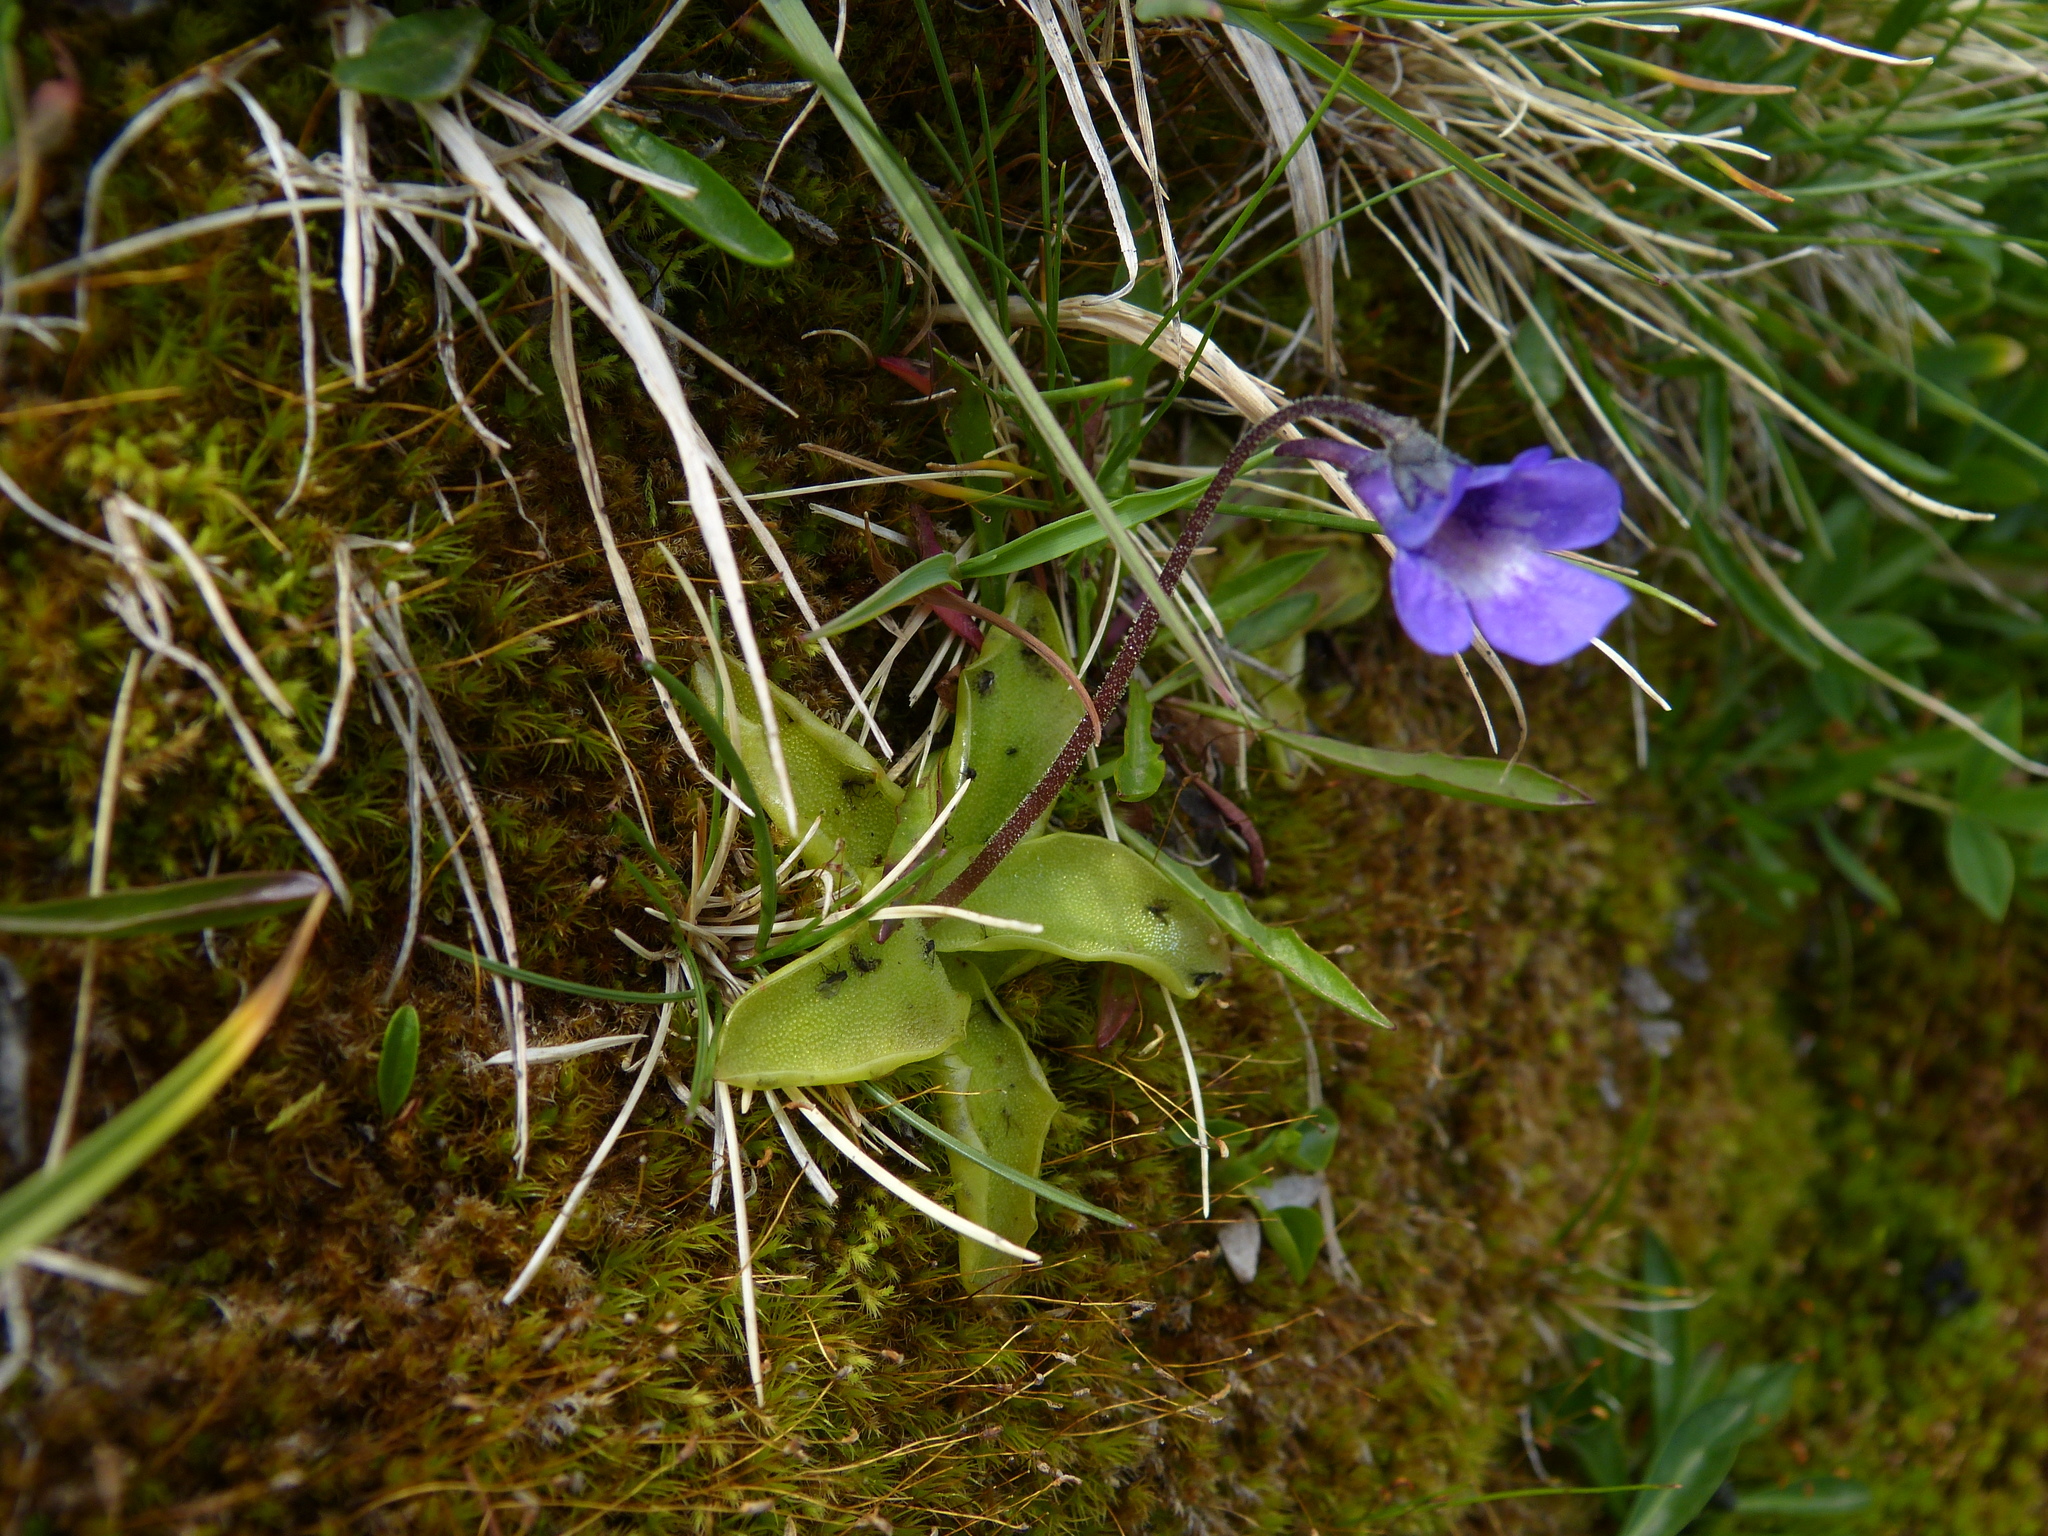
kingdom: Plantae
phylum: Tracheophyta
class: Magnoliopsida
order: Lamiales
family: Lentibulariaceae
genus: Pinguicula
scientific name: Pinguicula vulgaris
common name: Common butterwort
